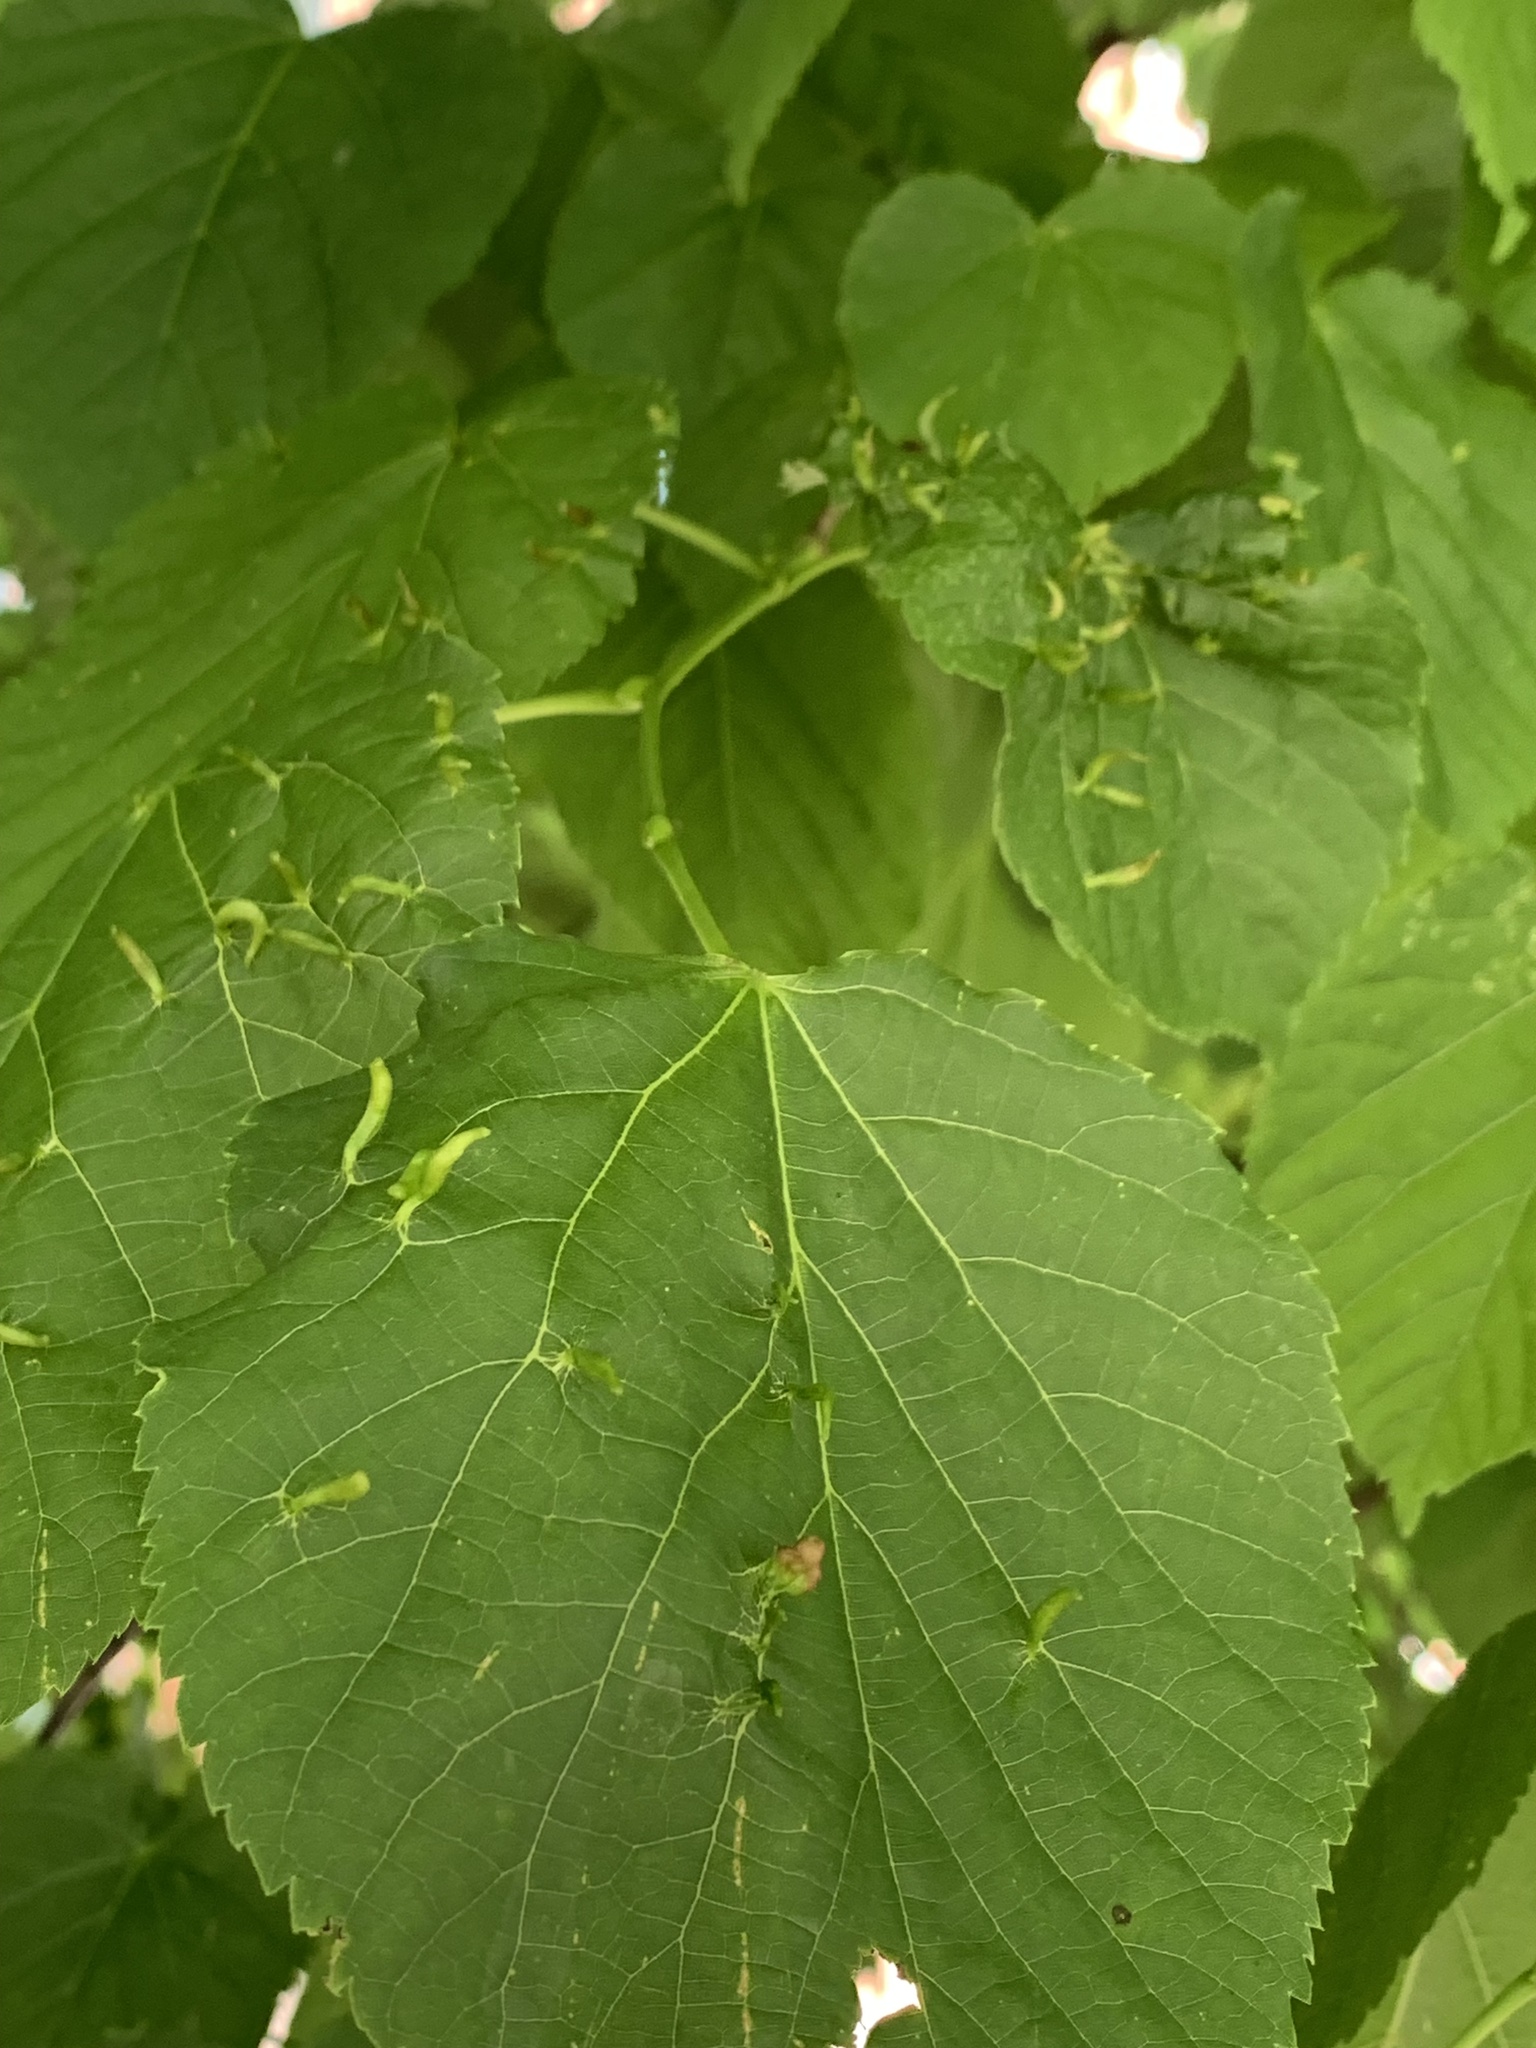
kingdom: Animalia
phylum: Arthropoda
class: Arachnida
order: Trombidiformes
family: Eriophyidae
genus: Eriophyes
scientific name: Eriophyes tiliae
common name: Red nail gall mite
